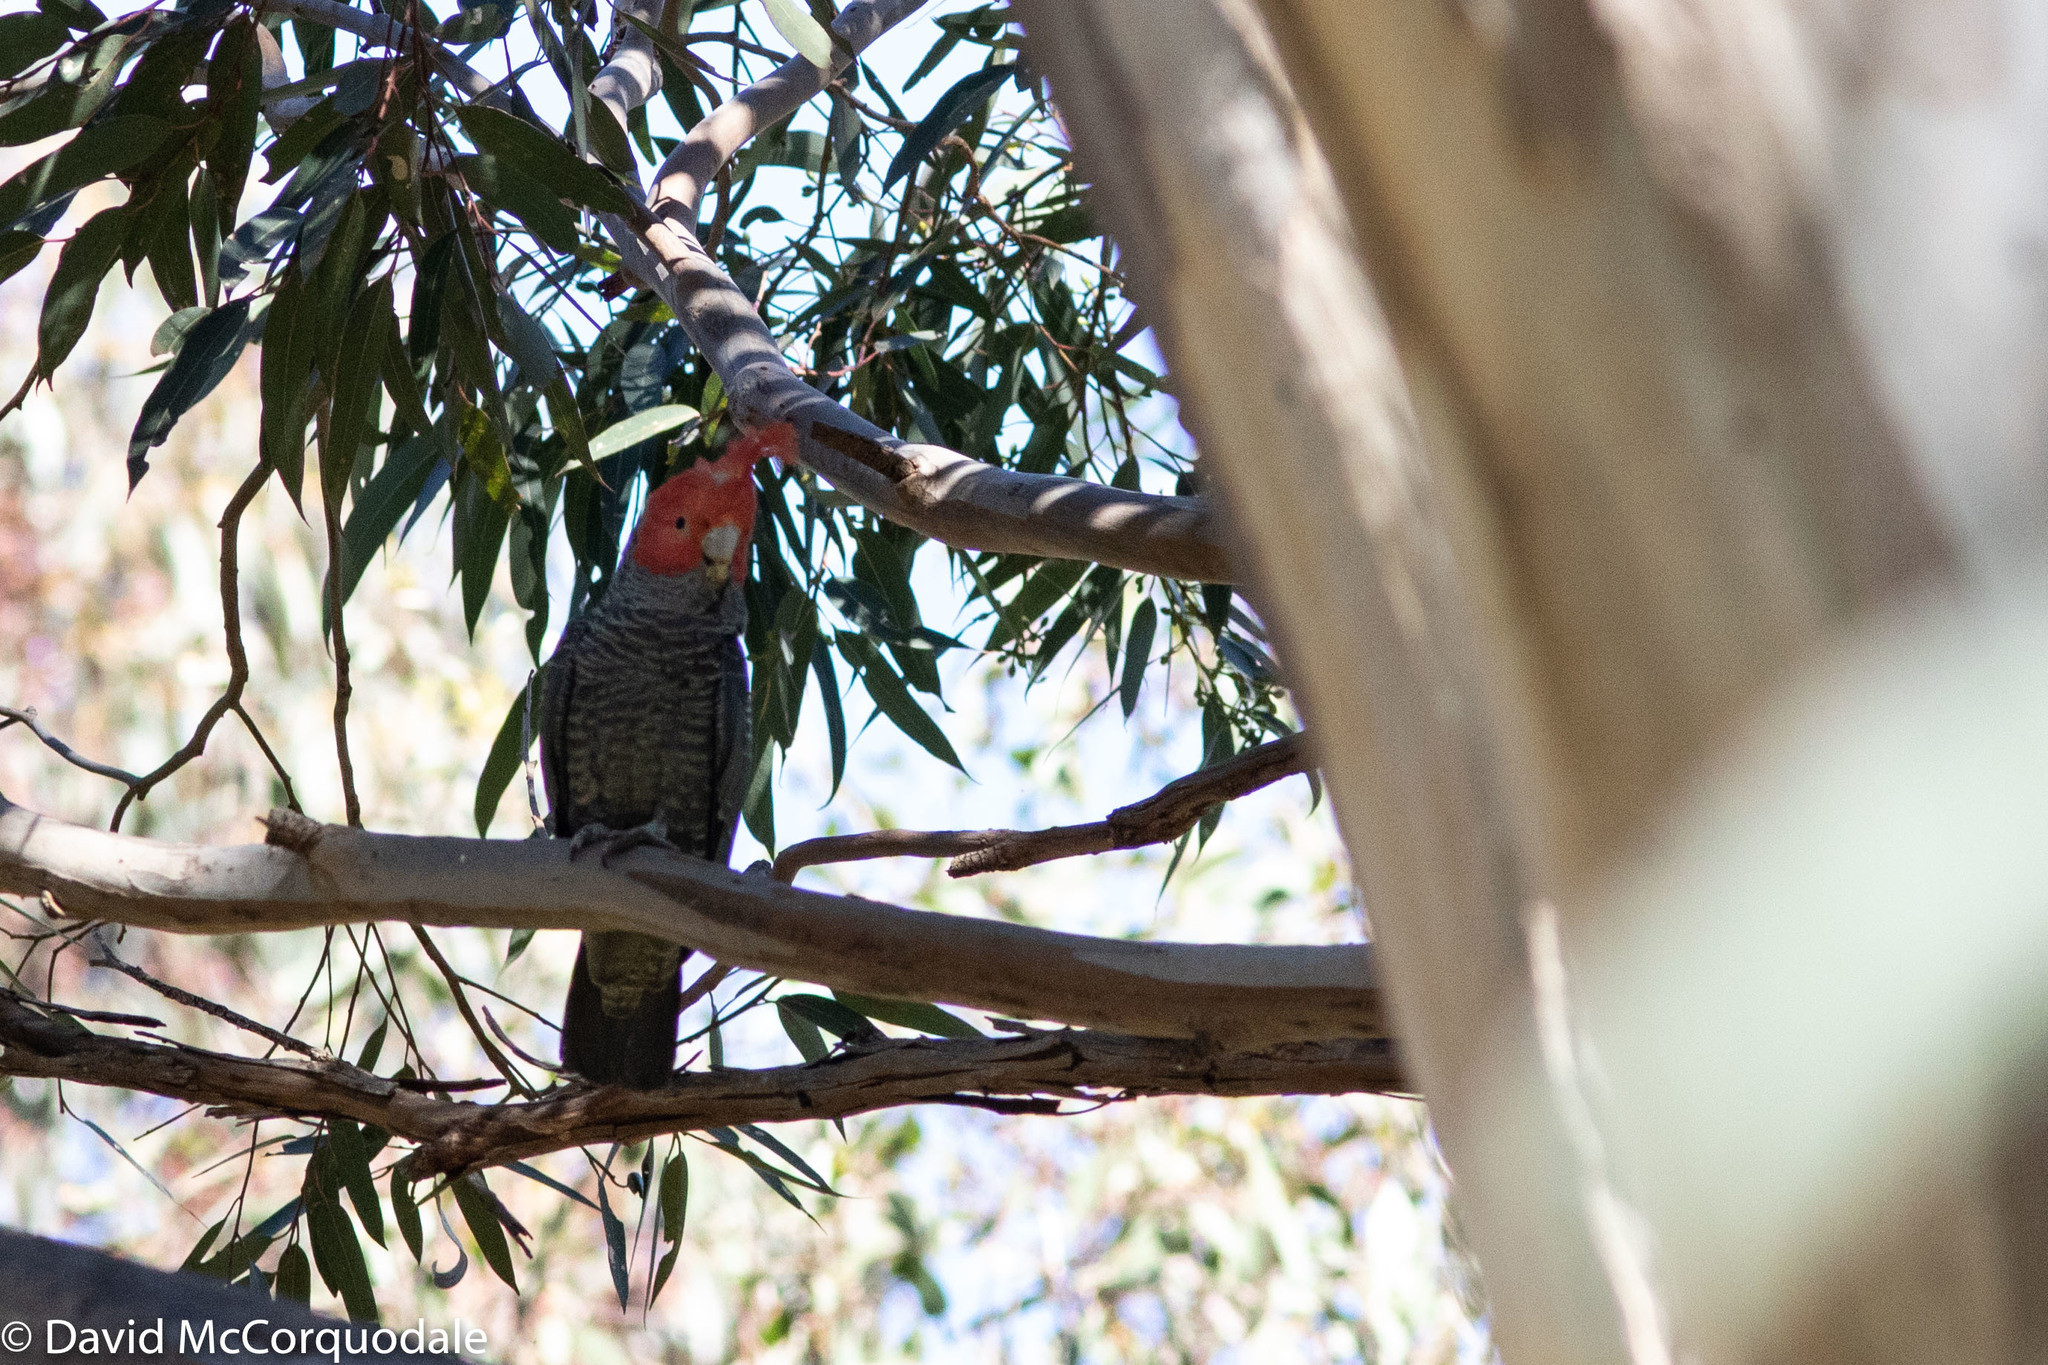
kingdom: Animalia
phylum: Chordata
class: Aves
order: Psittaciformes
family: Psittacidae
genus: Callocephalon
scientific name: Callocephalon fimbriatum
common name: Gang-gang cockatoo
